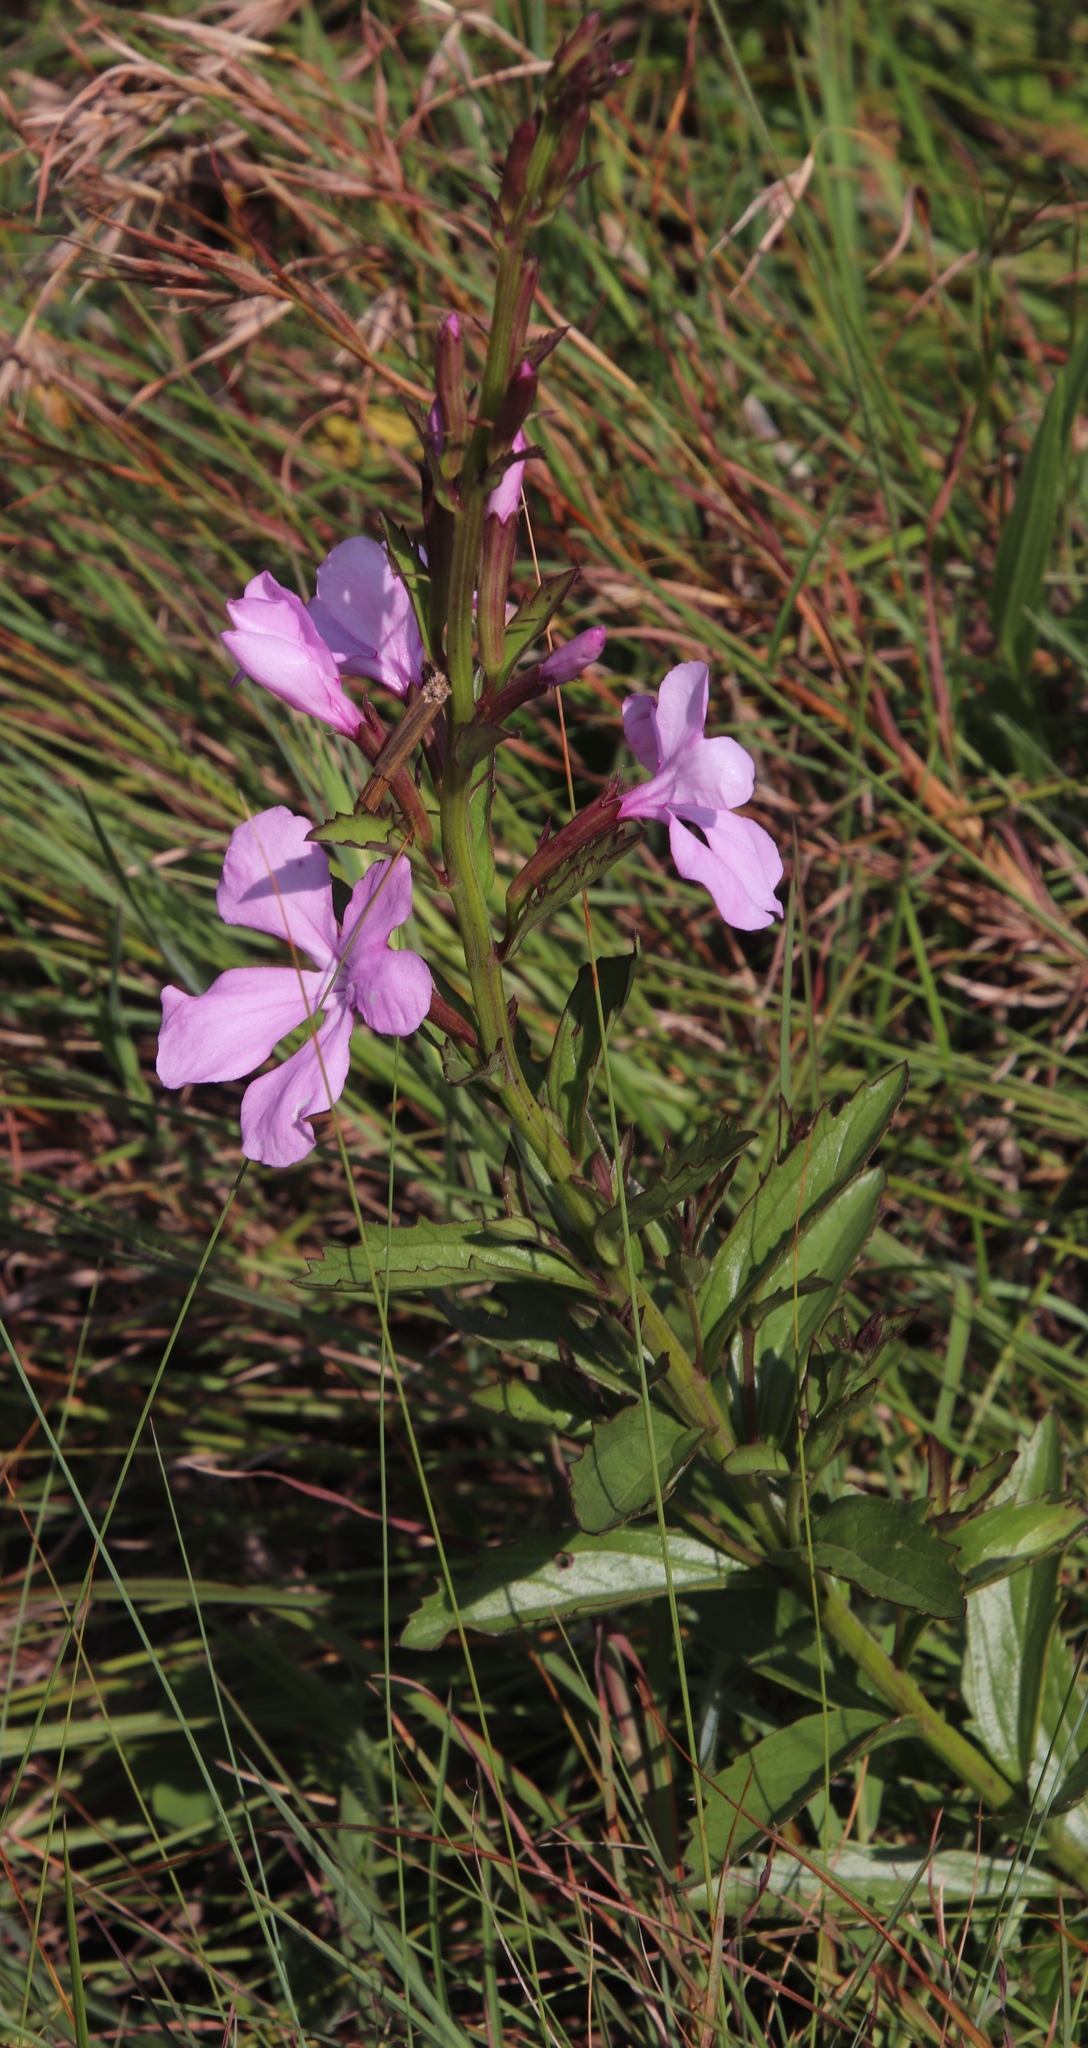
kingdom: Plantae
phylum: Tracheophyta
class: Magnoliopsida
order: Lamiales
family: Orobanchaceae
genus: Cycnium
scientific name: Cycnium racemosum
